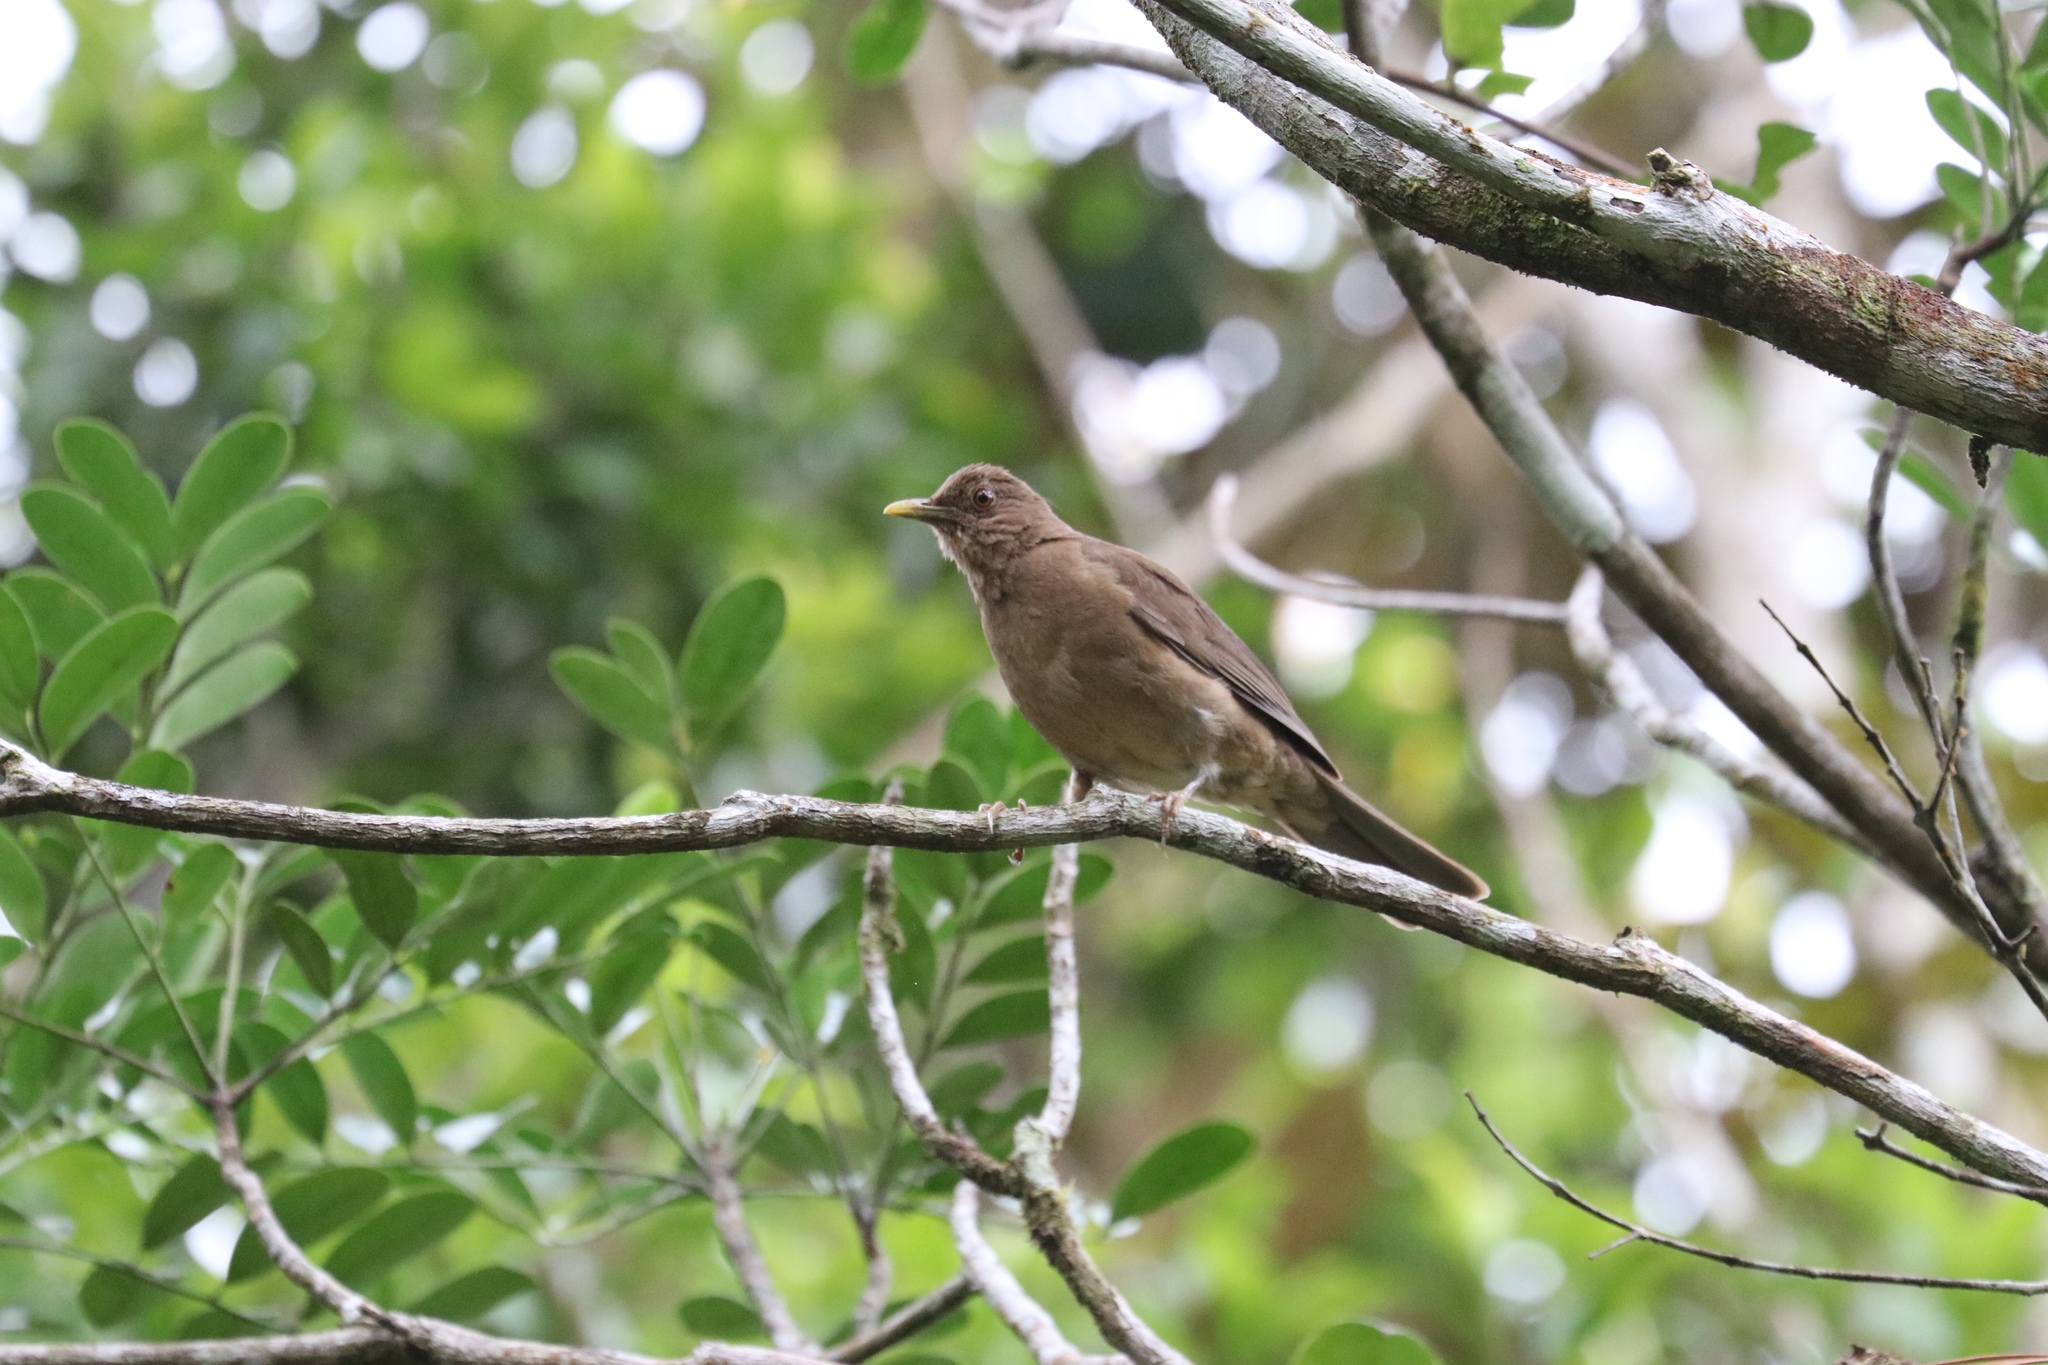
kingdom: Animalia
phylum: Chordata
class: Aves
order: Passeriformes
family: Turdidae
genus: Turdus
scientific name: Turdus grayi
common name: Clay-colored thrush
